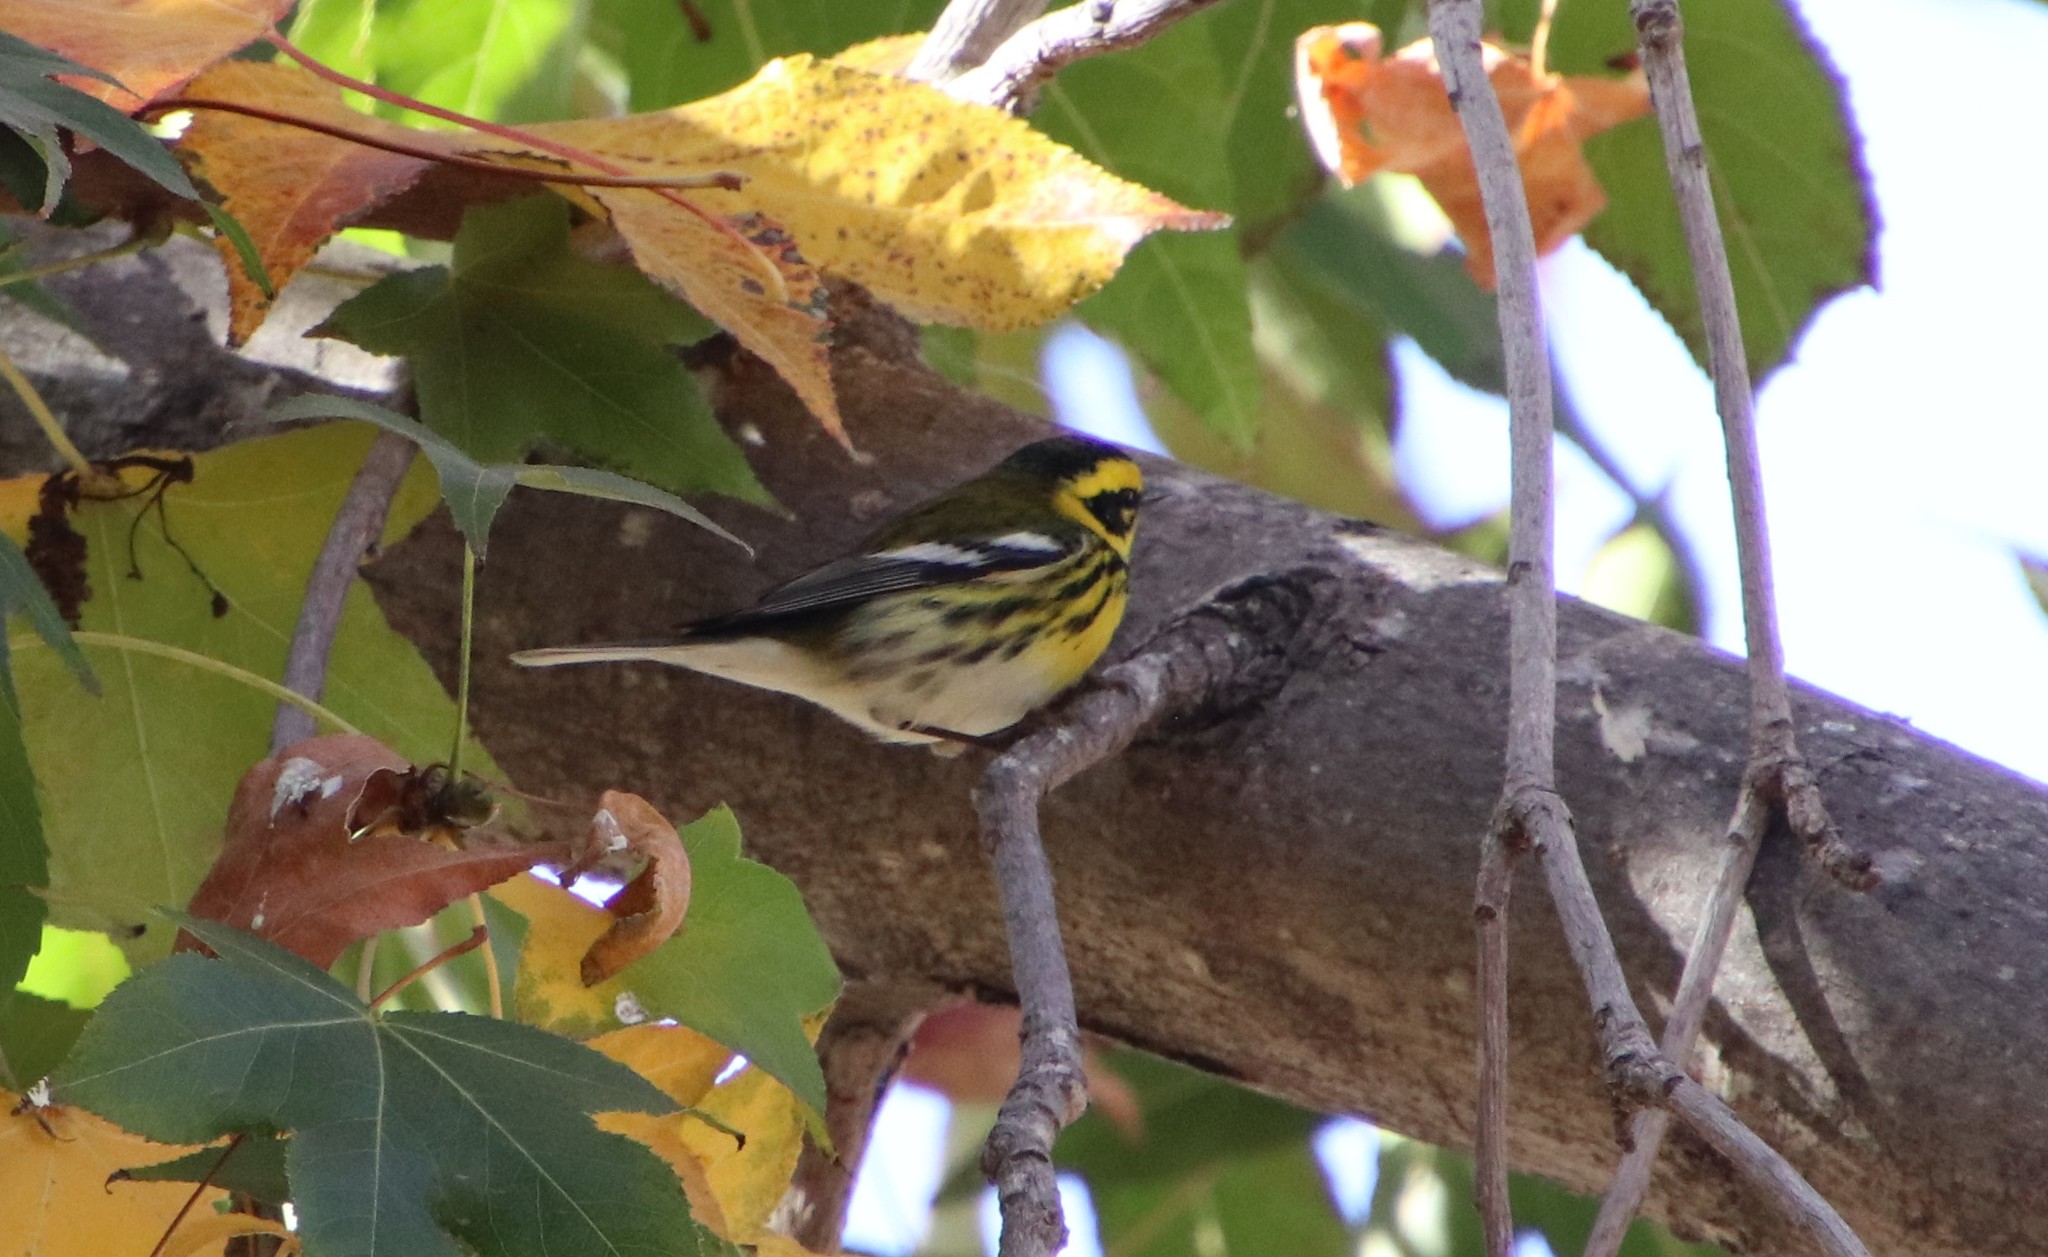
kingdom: Animalia
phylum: Chordata
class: Aves
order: Passeriformes
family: Parulidae
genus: Setophaga
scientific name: Setophaga townsendi
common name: Townsend's warbler
